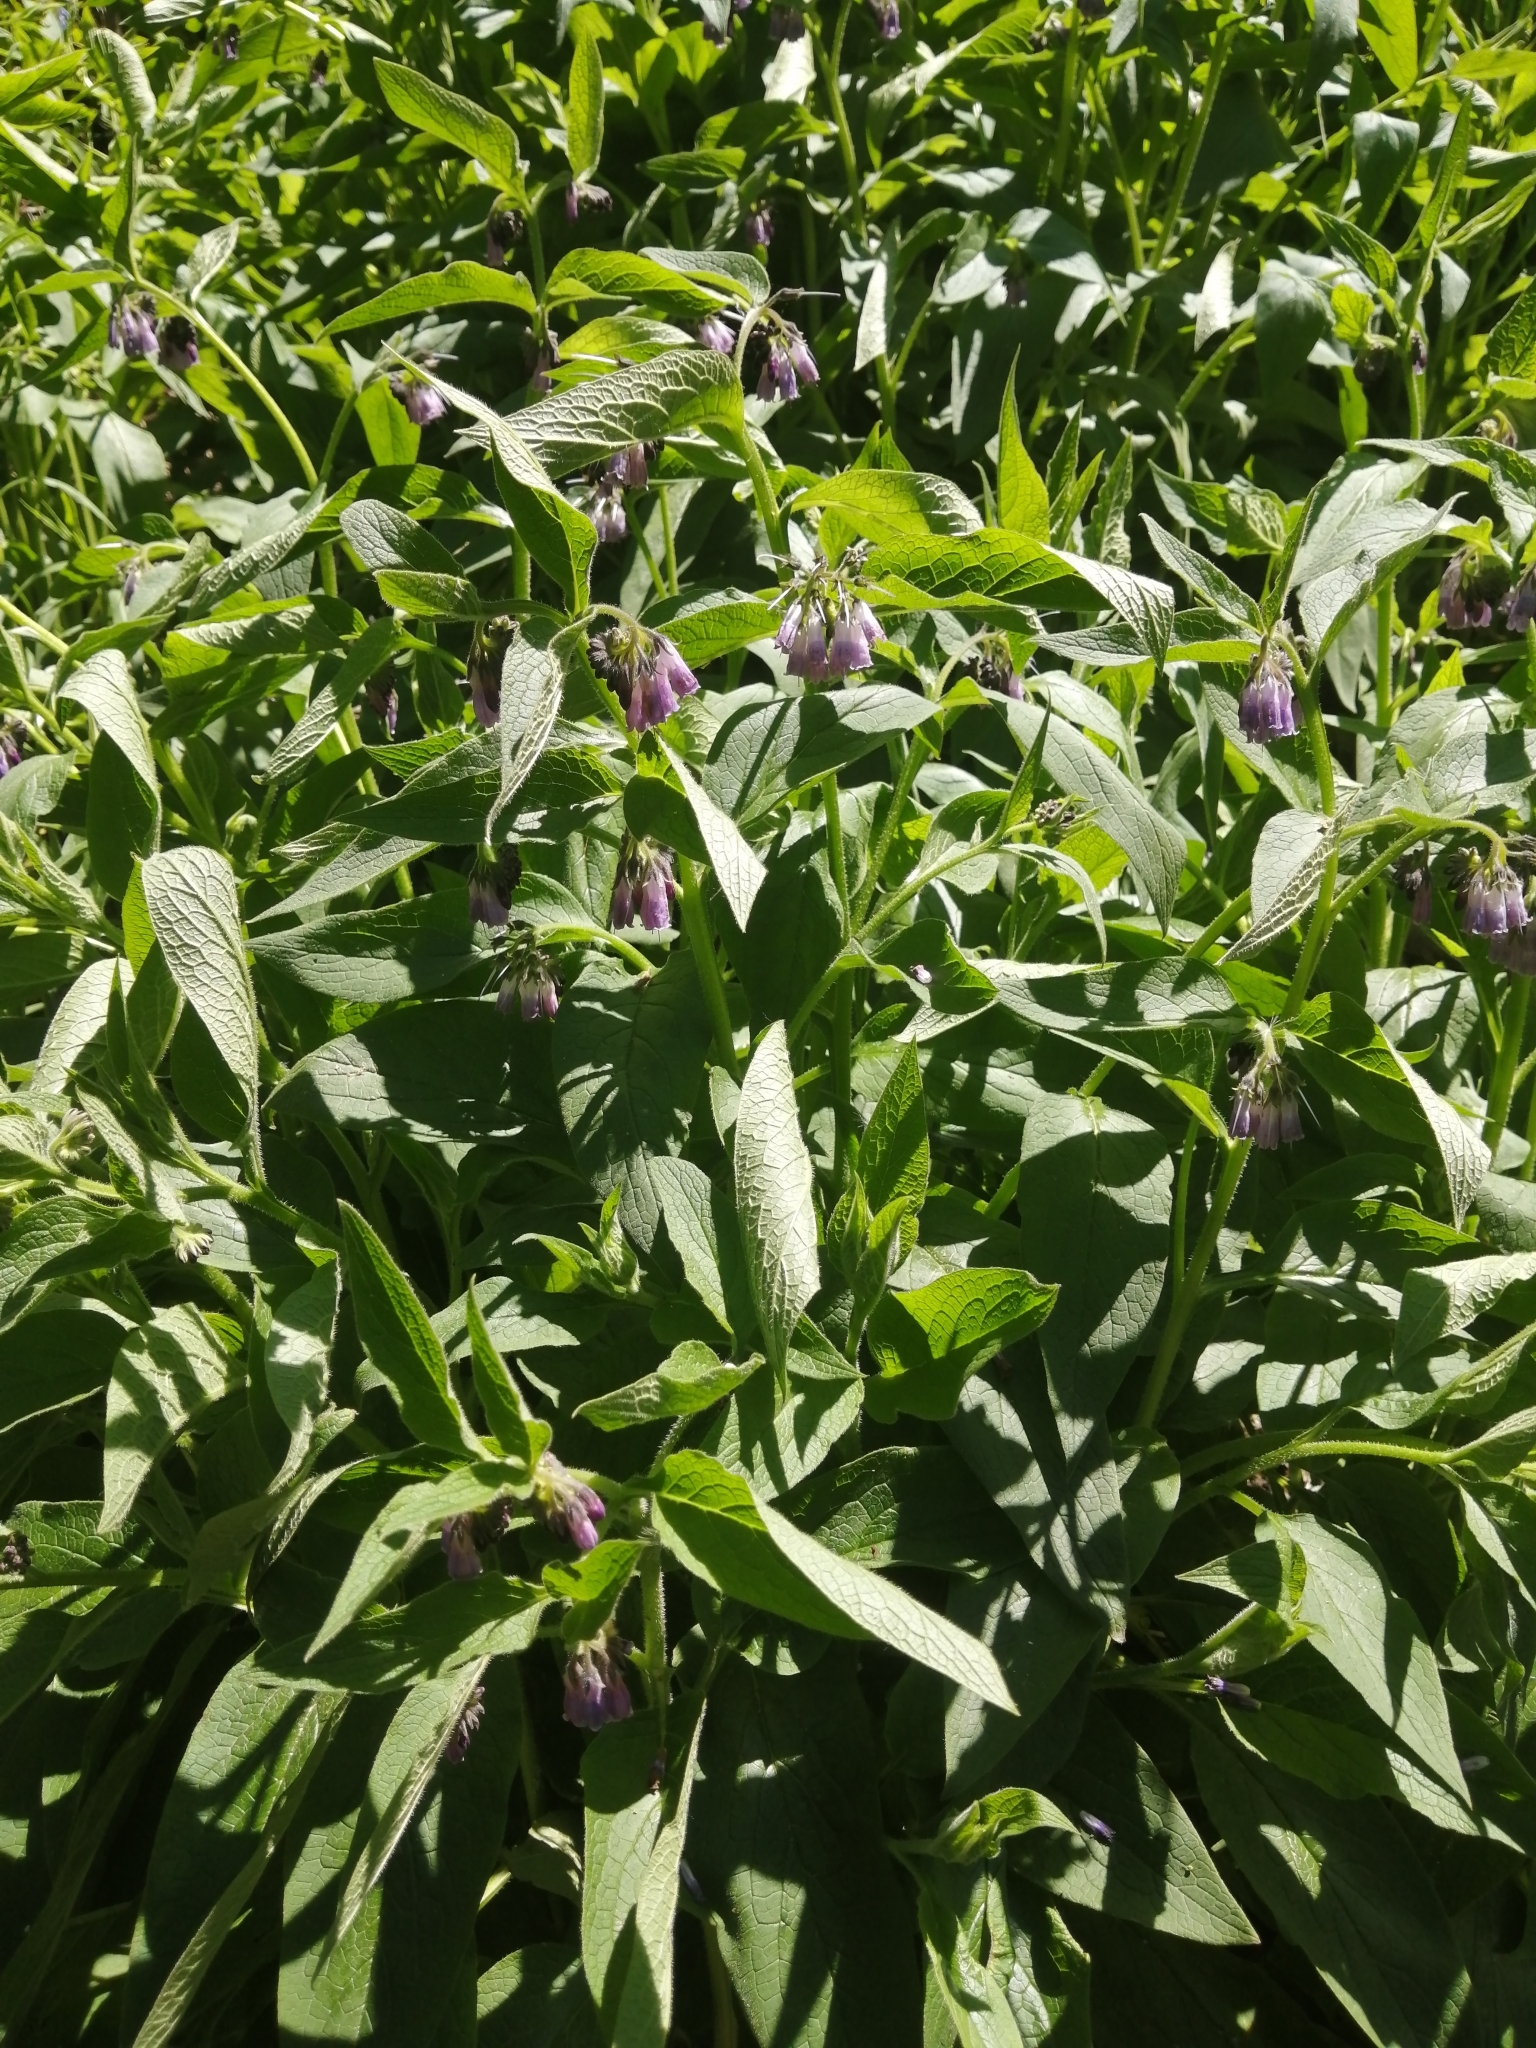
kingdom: Plantae
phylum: Tracheophyta
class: Magnoliopsida
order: Boraginales
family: Boraginaceae
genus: Symphytum
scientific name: Symphytum officinale
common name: Common comfrey
